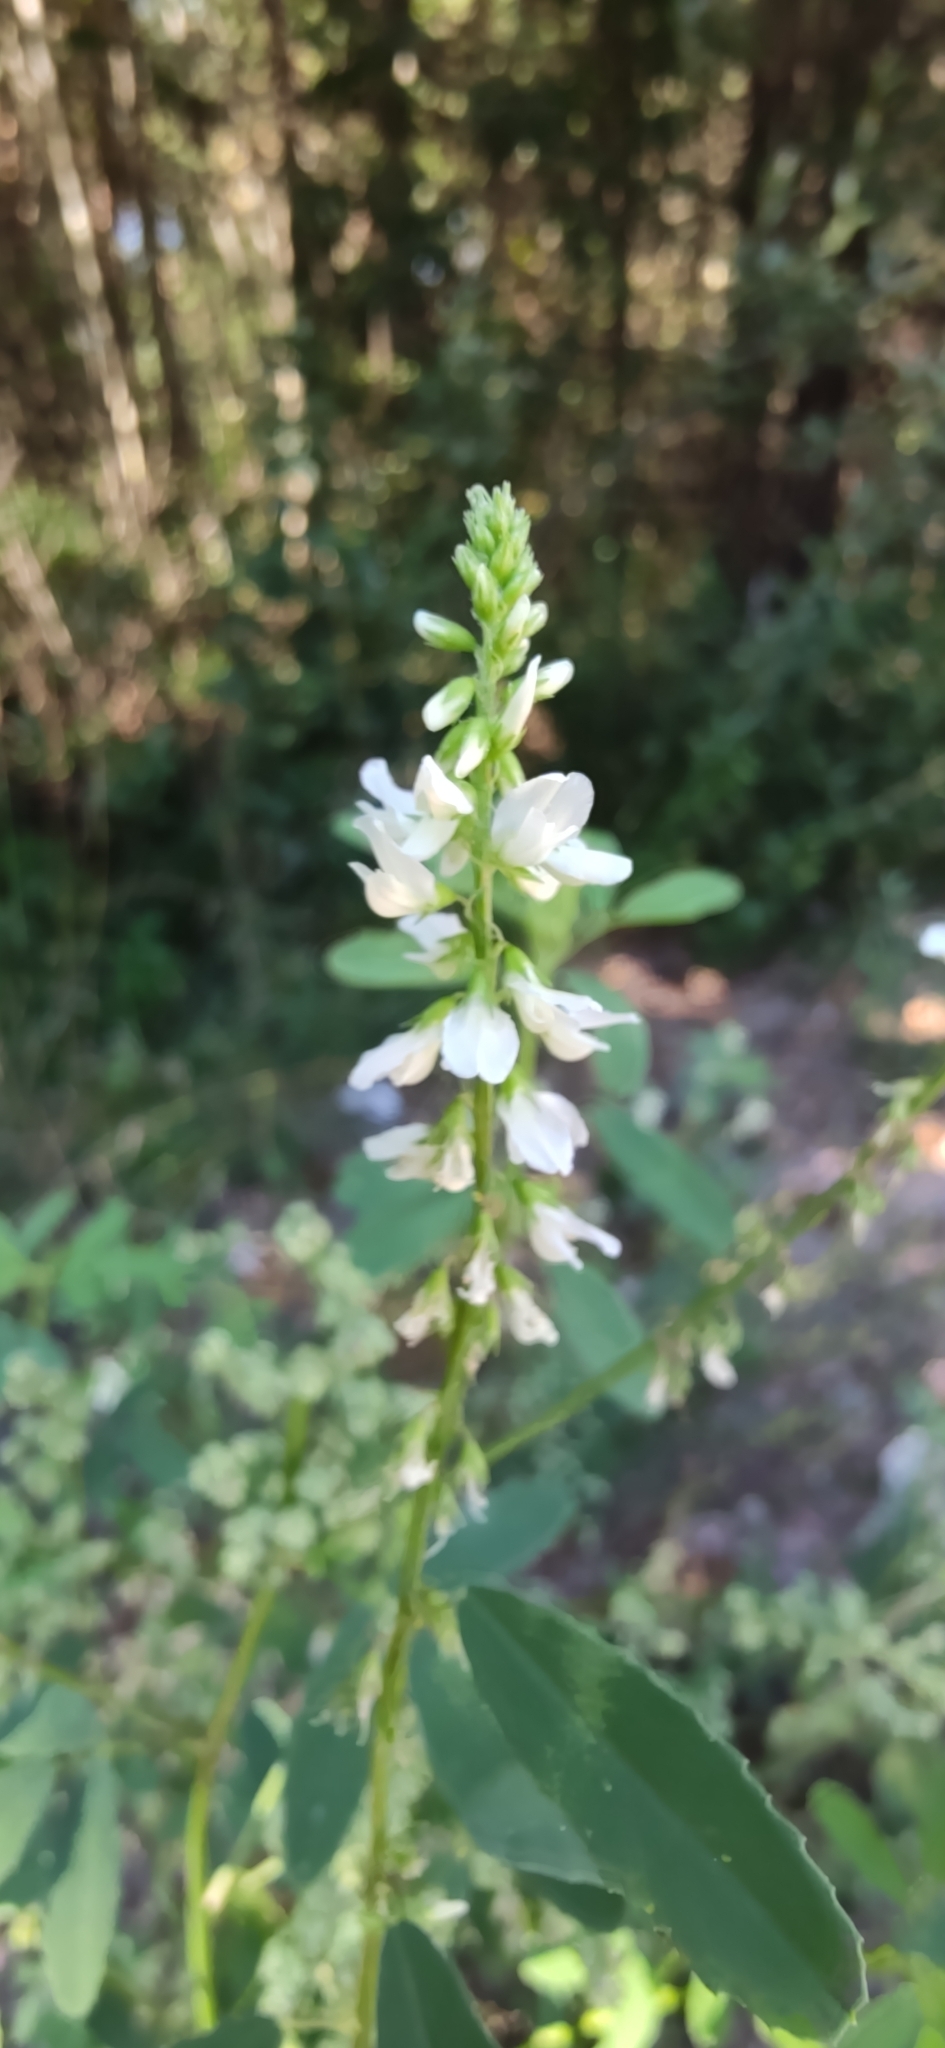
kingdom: Plantae
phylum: Tracheophyta
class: Magnoliopsida
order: Fabales
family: Fabaceae
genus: Melilotus
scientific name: Melilotus albus
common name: White melilot
